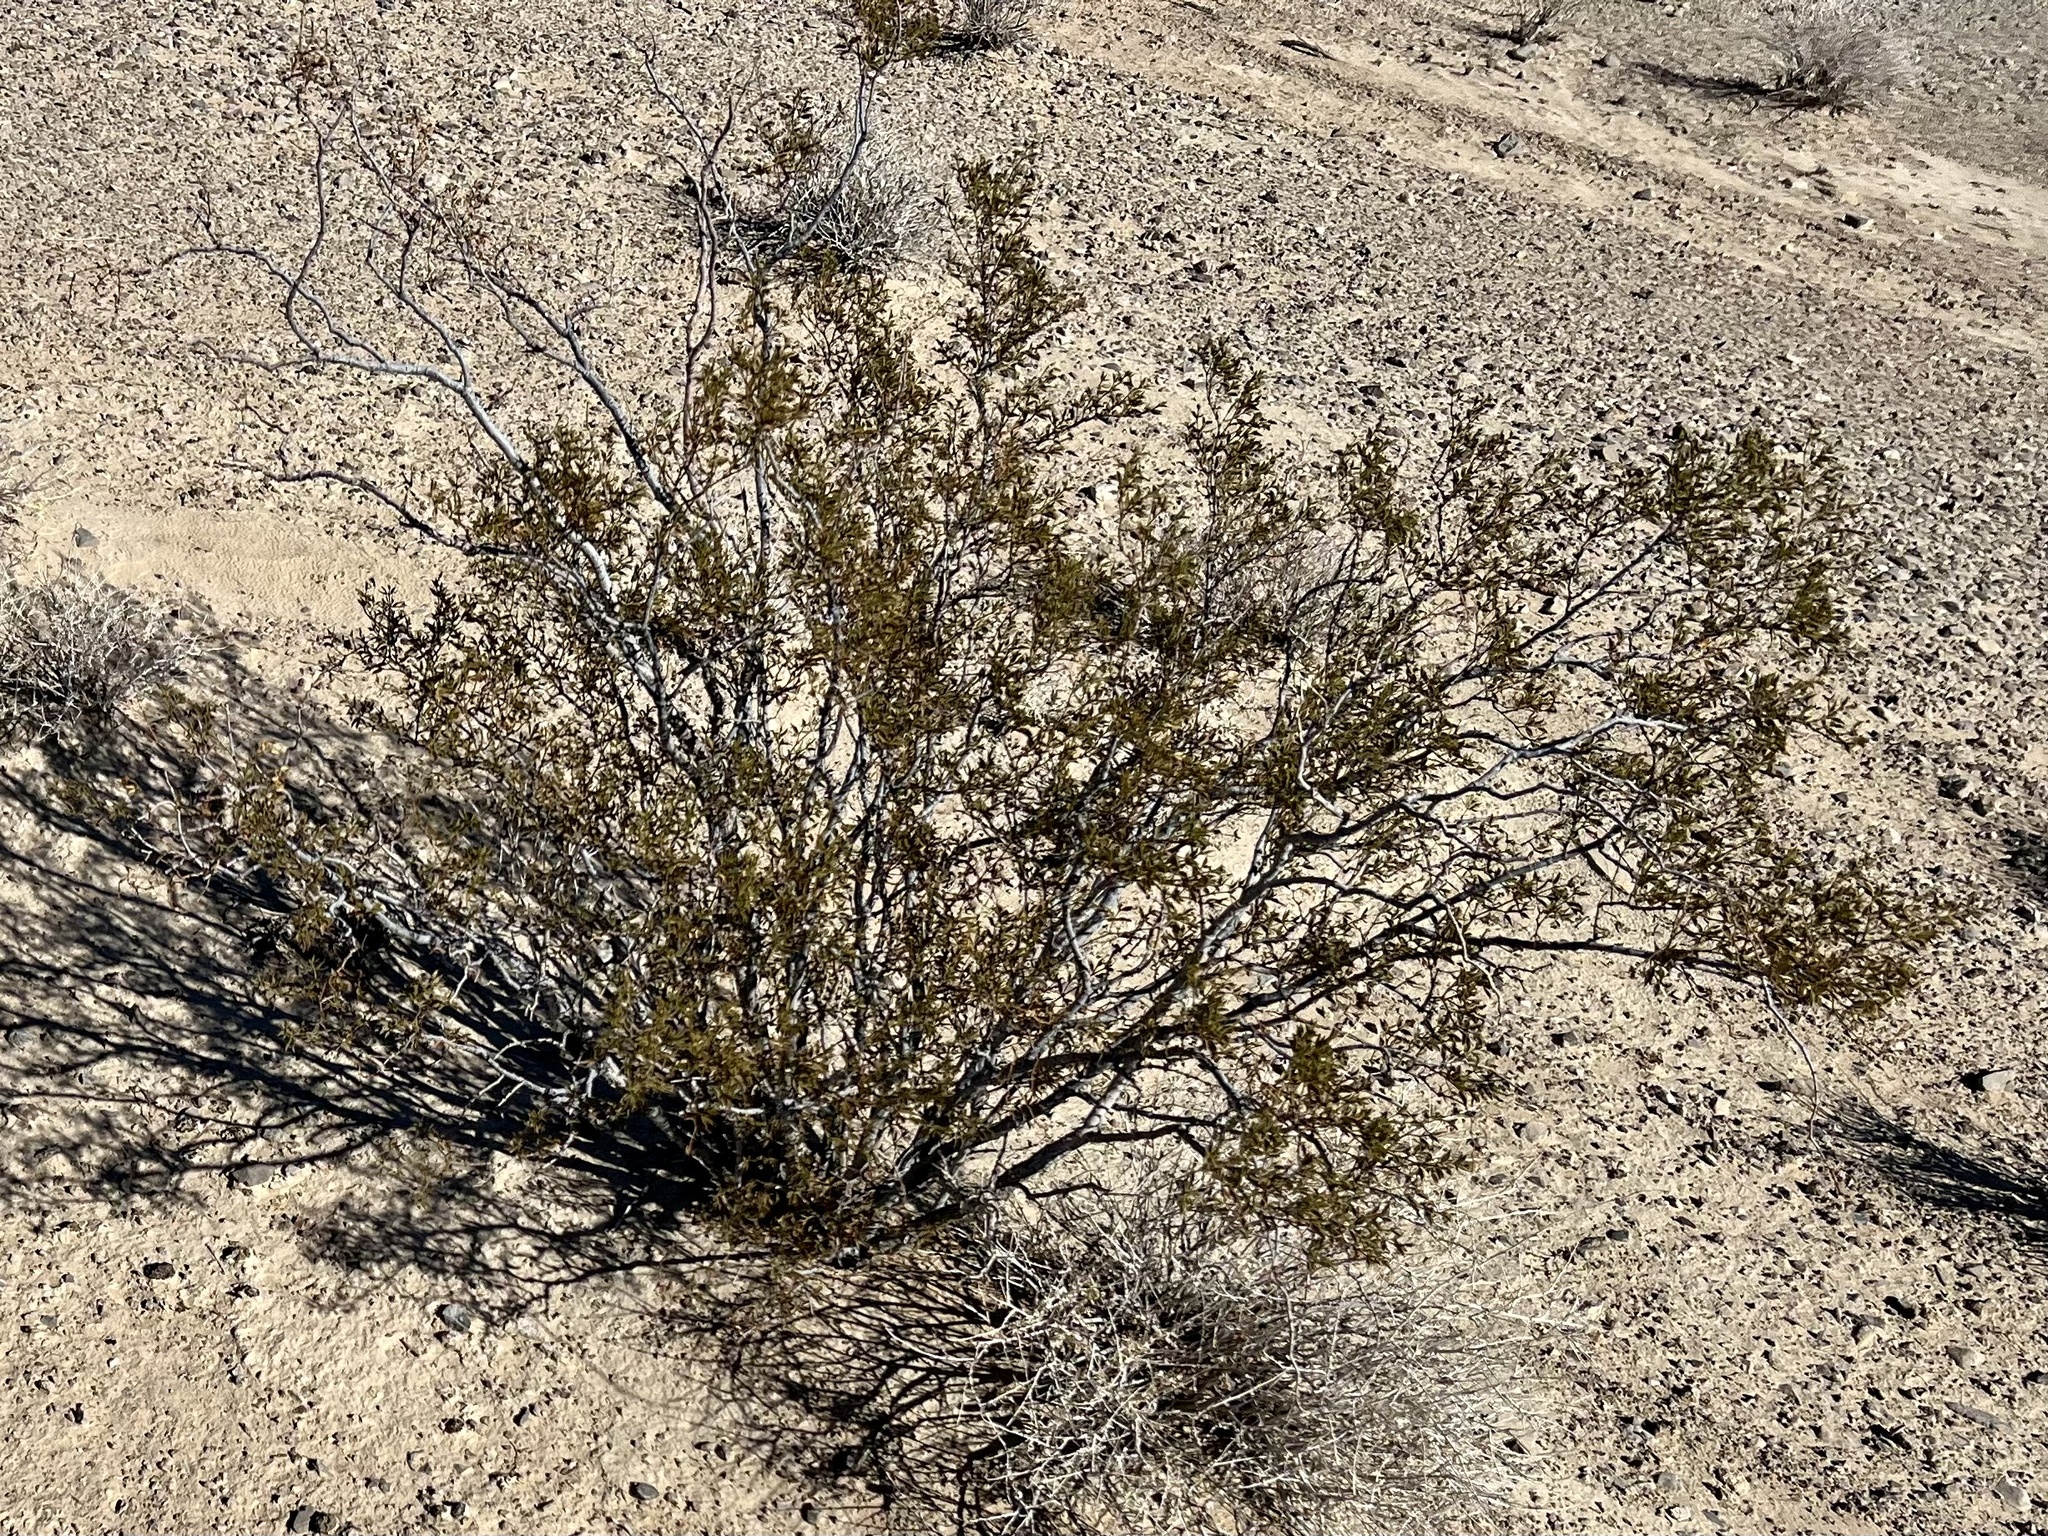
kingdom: Plantae
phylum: Tracheophyta
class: Magnoliopsida
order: Zygophyllales
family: Zygophyllaceae
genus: Larrea
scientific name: Larrea tridentata
